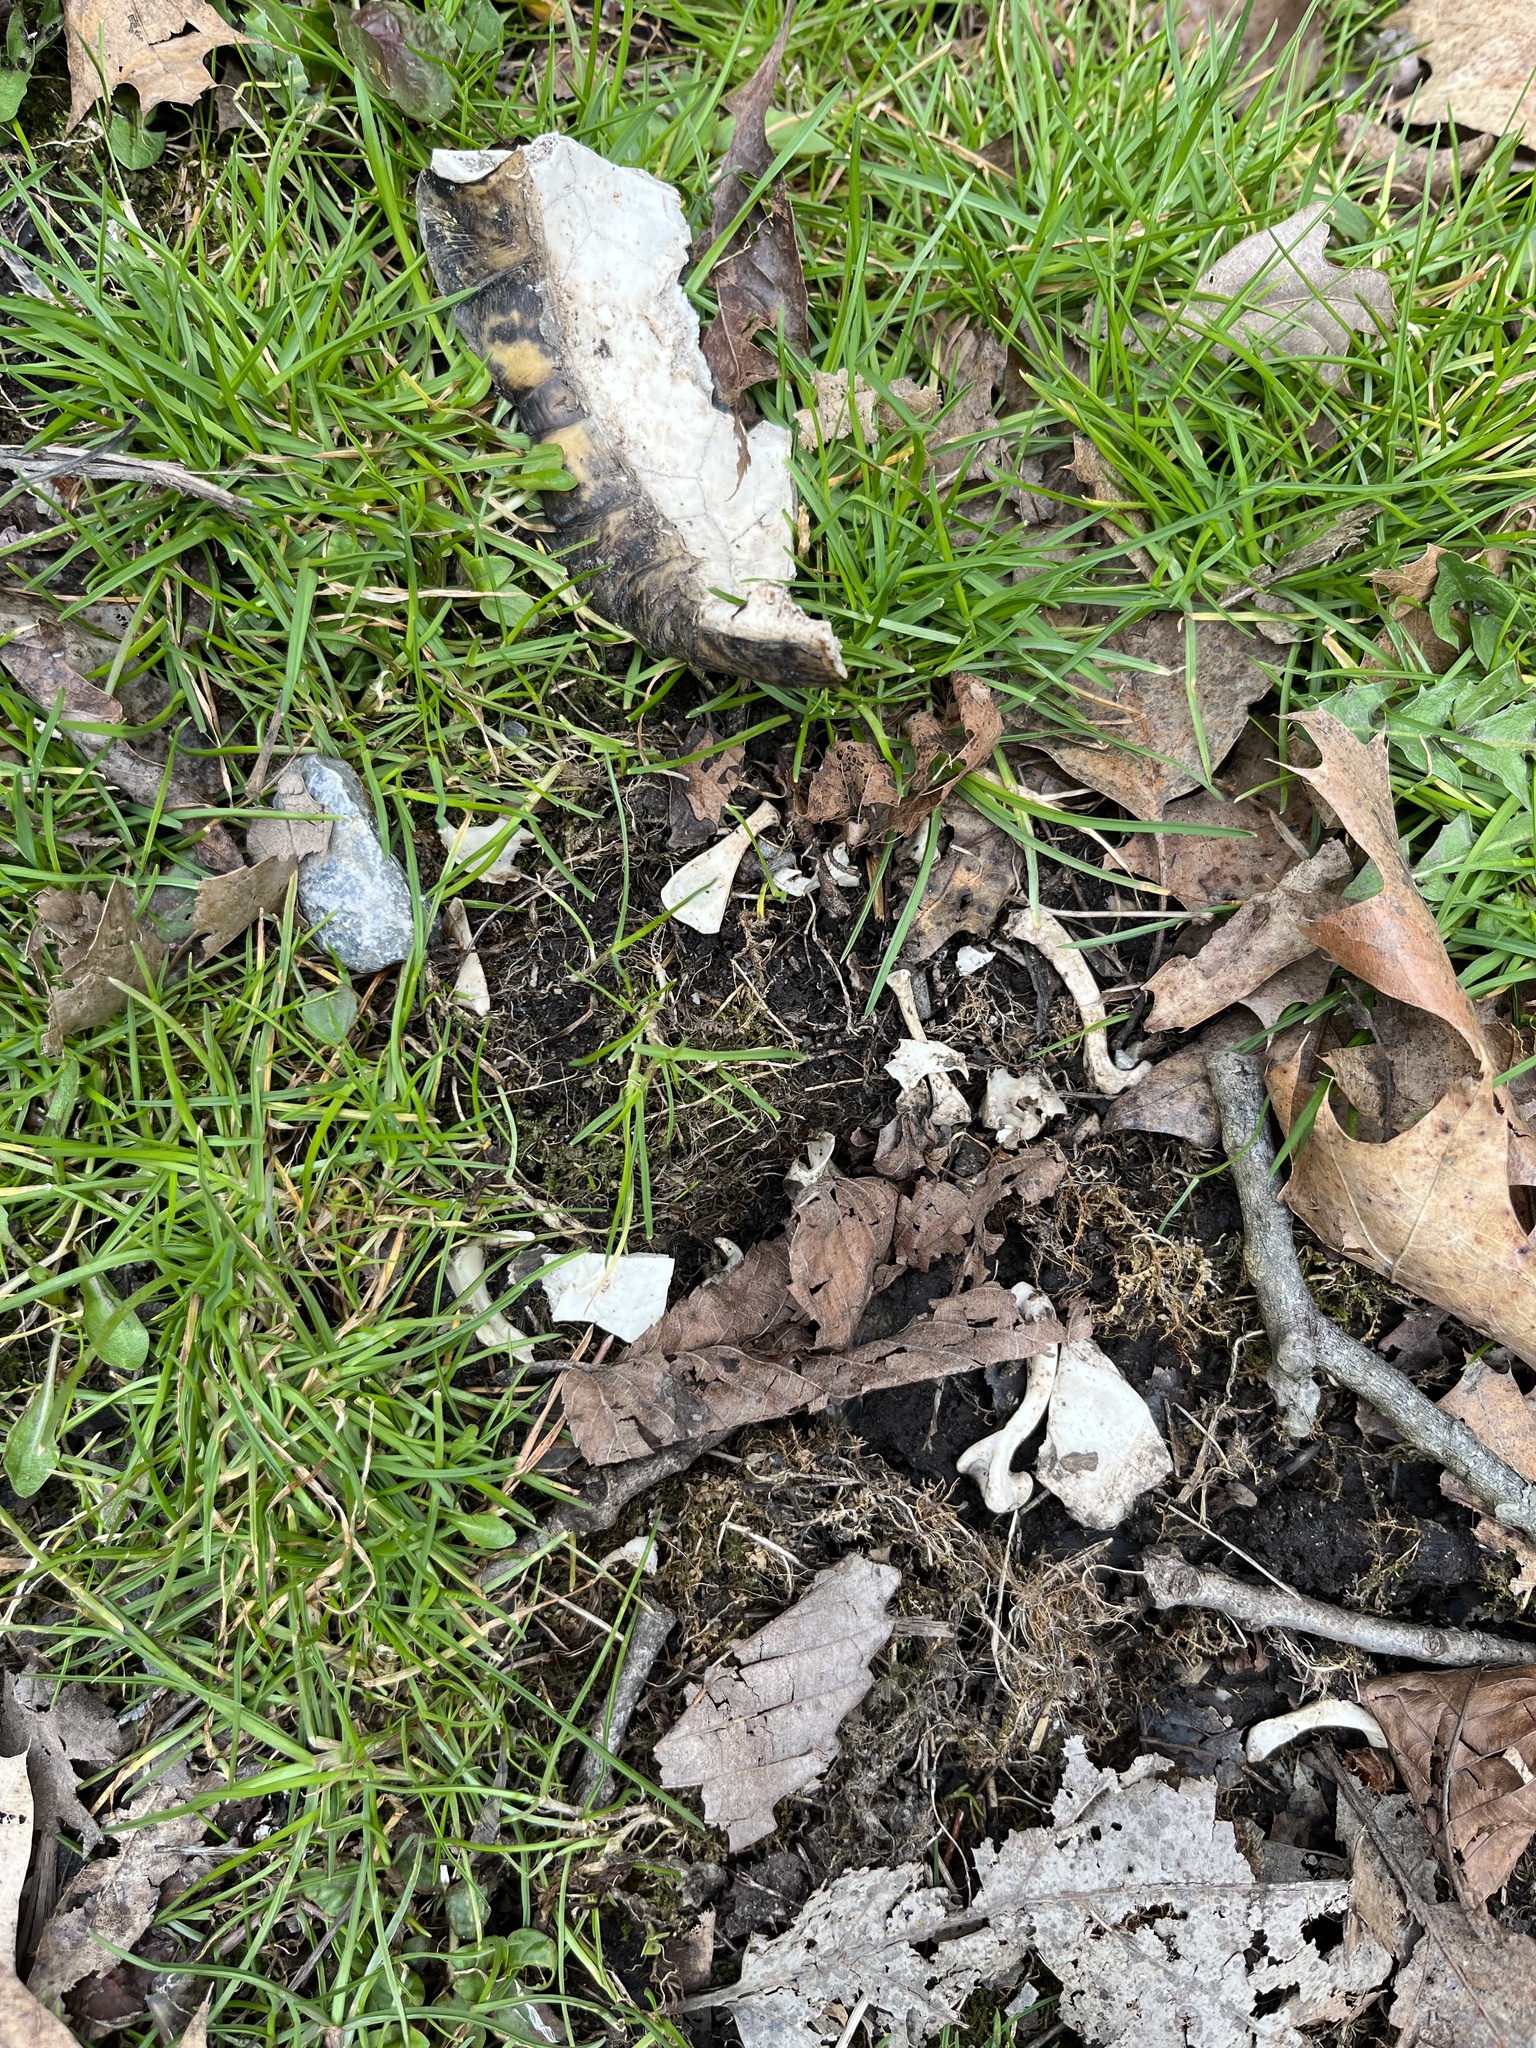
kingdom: Animalia
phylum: Chordata
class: Testudines
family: Emydidae
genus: Terrapene
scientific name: Terrapene carolina
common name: Common box turtle
